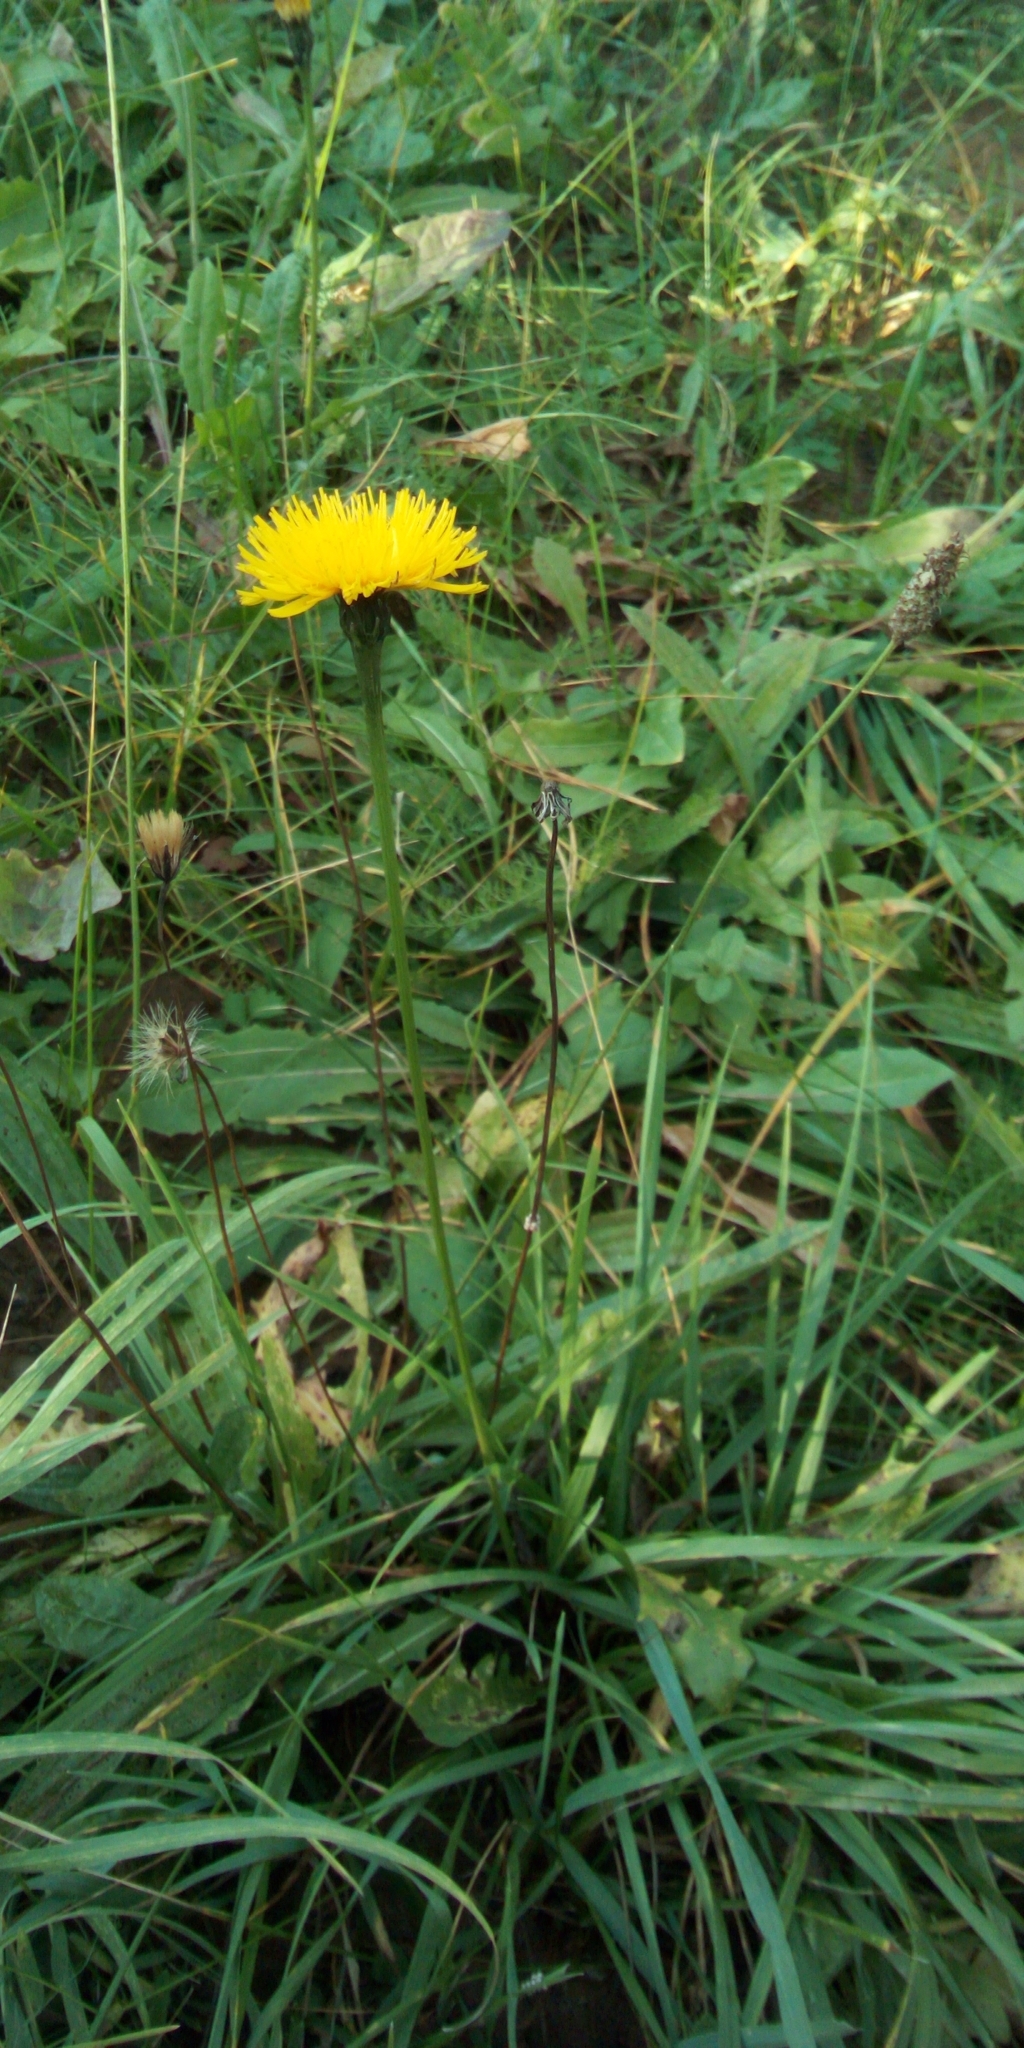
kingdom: Plantae
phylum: Tracheophyta
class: Magnoliopsida
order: Asterales
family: Asteraceae
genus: Leontodon
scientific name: Leontodon hispidus
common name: Rough hawkbit
